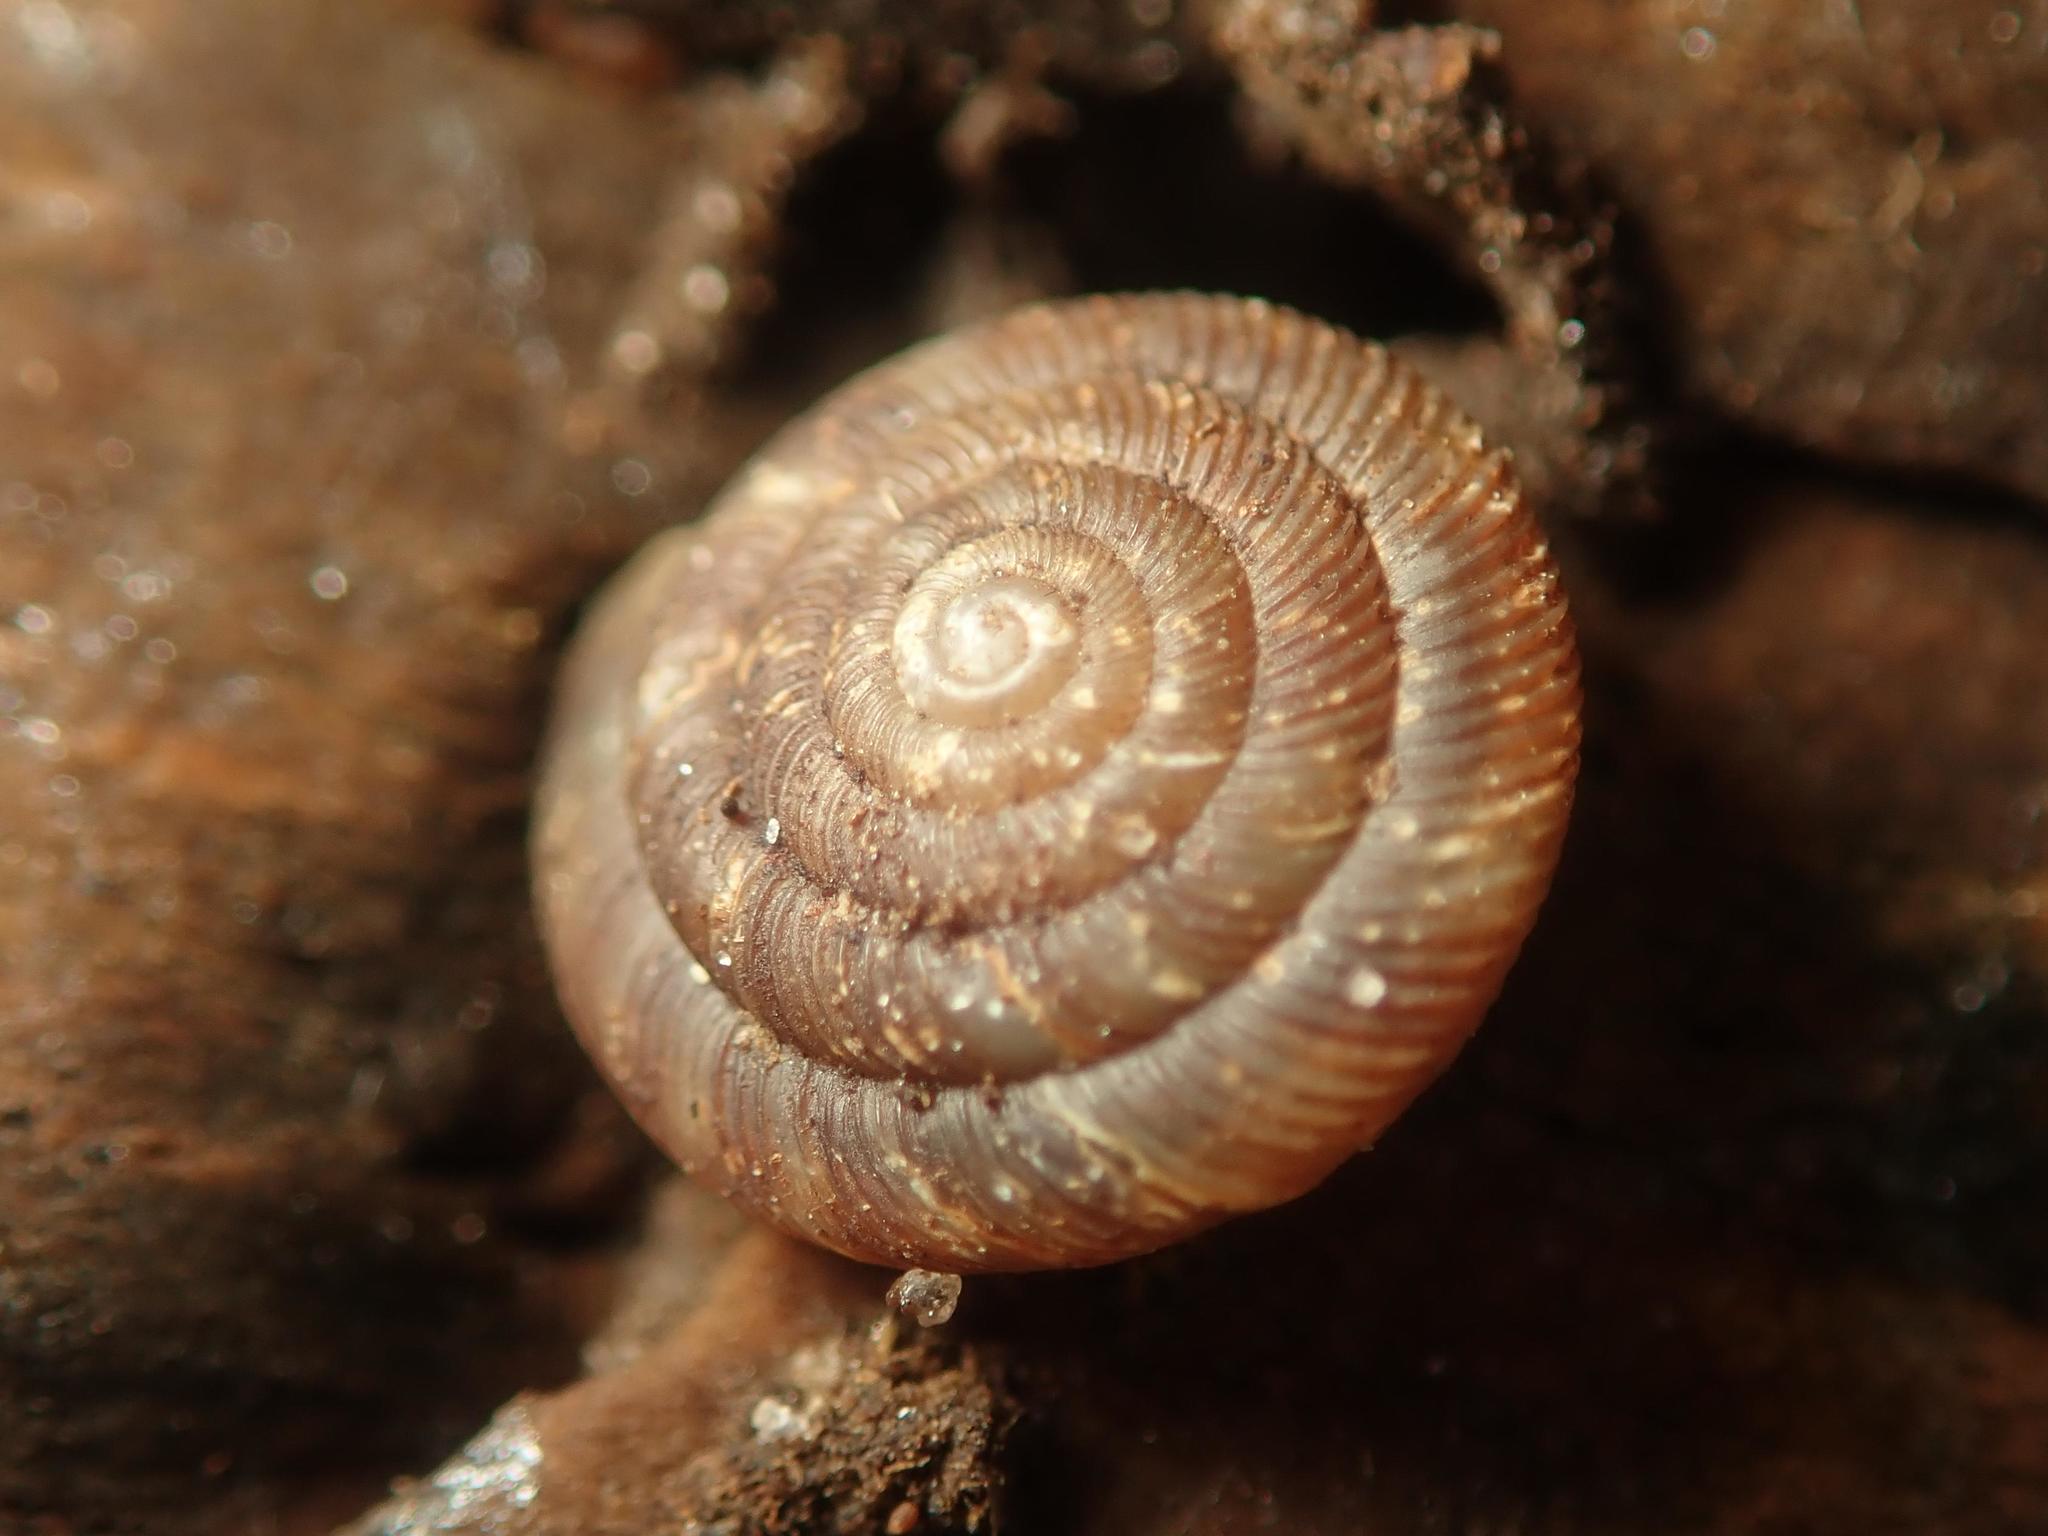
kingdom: Animalia
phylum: Mollusca
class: Gastropoda
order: Stylommatophora
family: Discidae
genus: Discus
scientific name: Discus rotundatus
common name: Rounded snail
